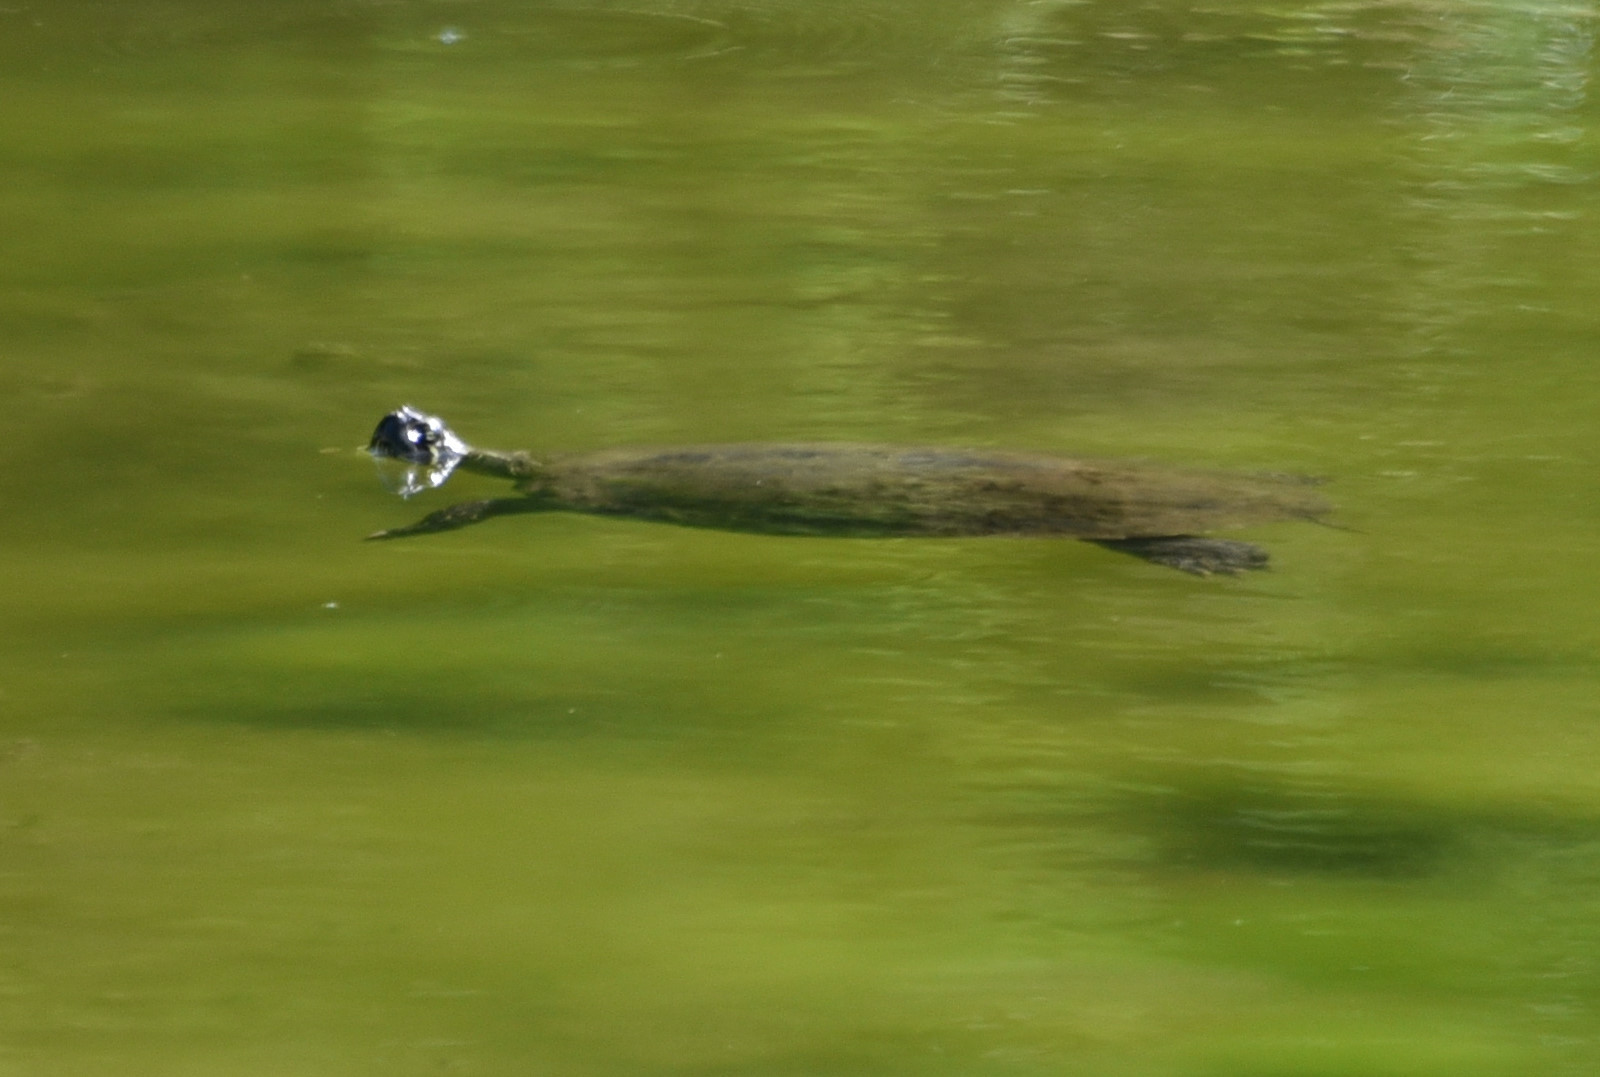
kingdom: Animalia
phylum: Chordata
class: Testudines
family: Emydidae
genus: Pseudemys
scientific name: Pseudemys texana
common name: Texas river cooter
